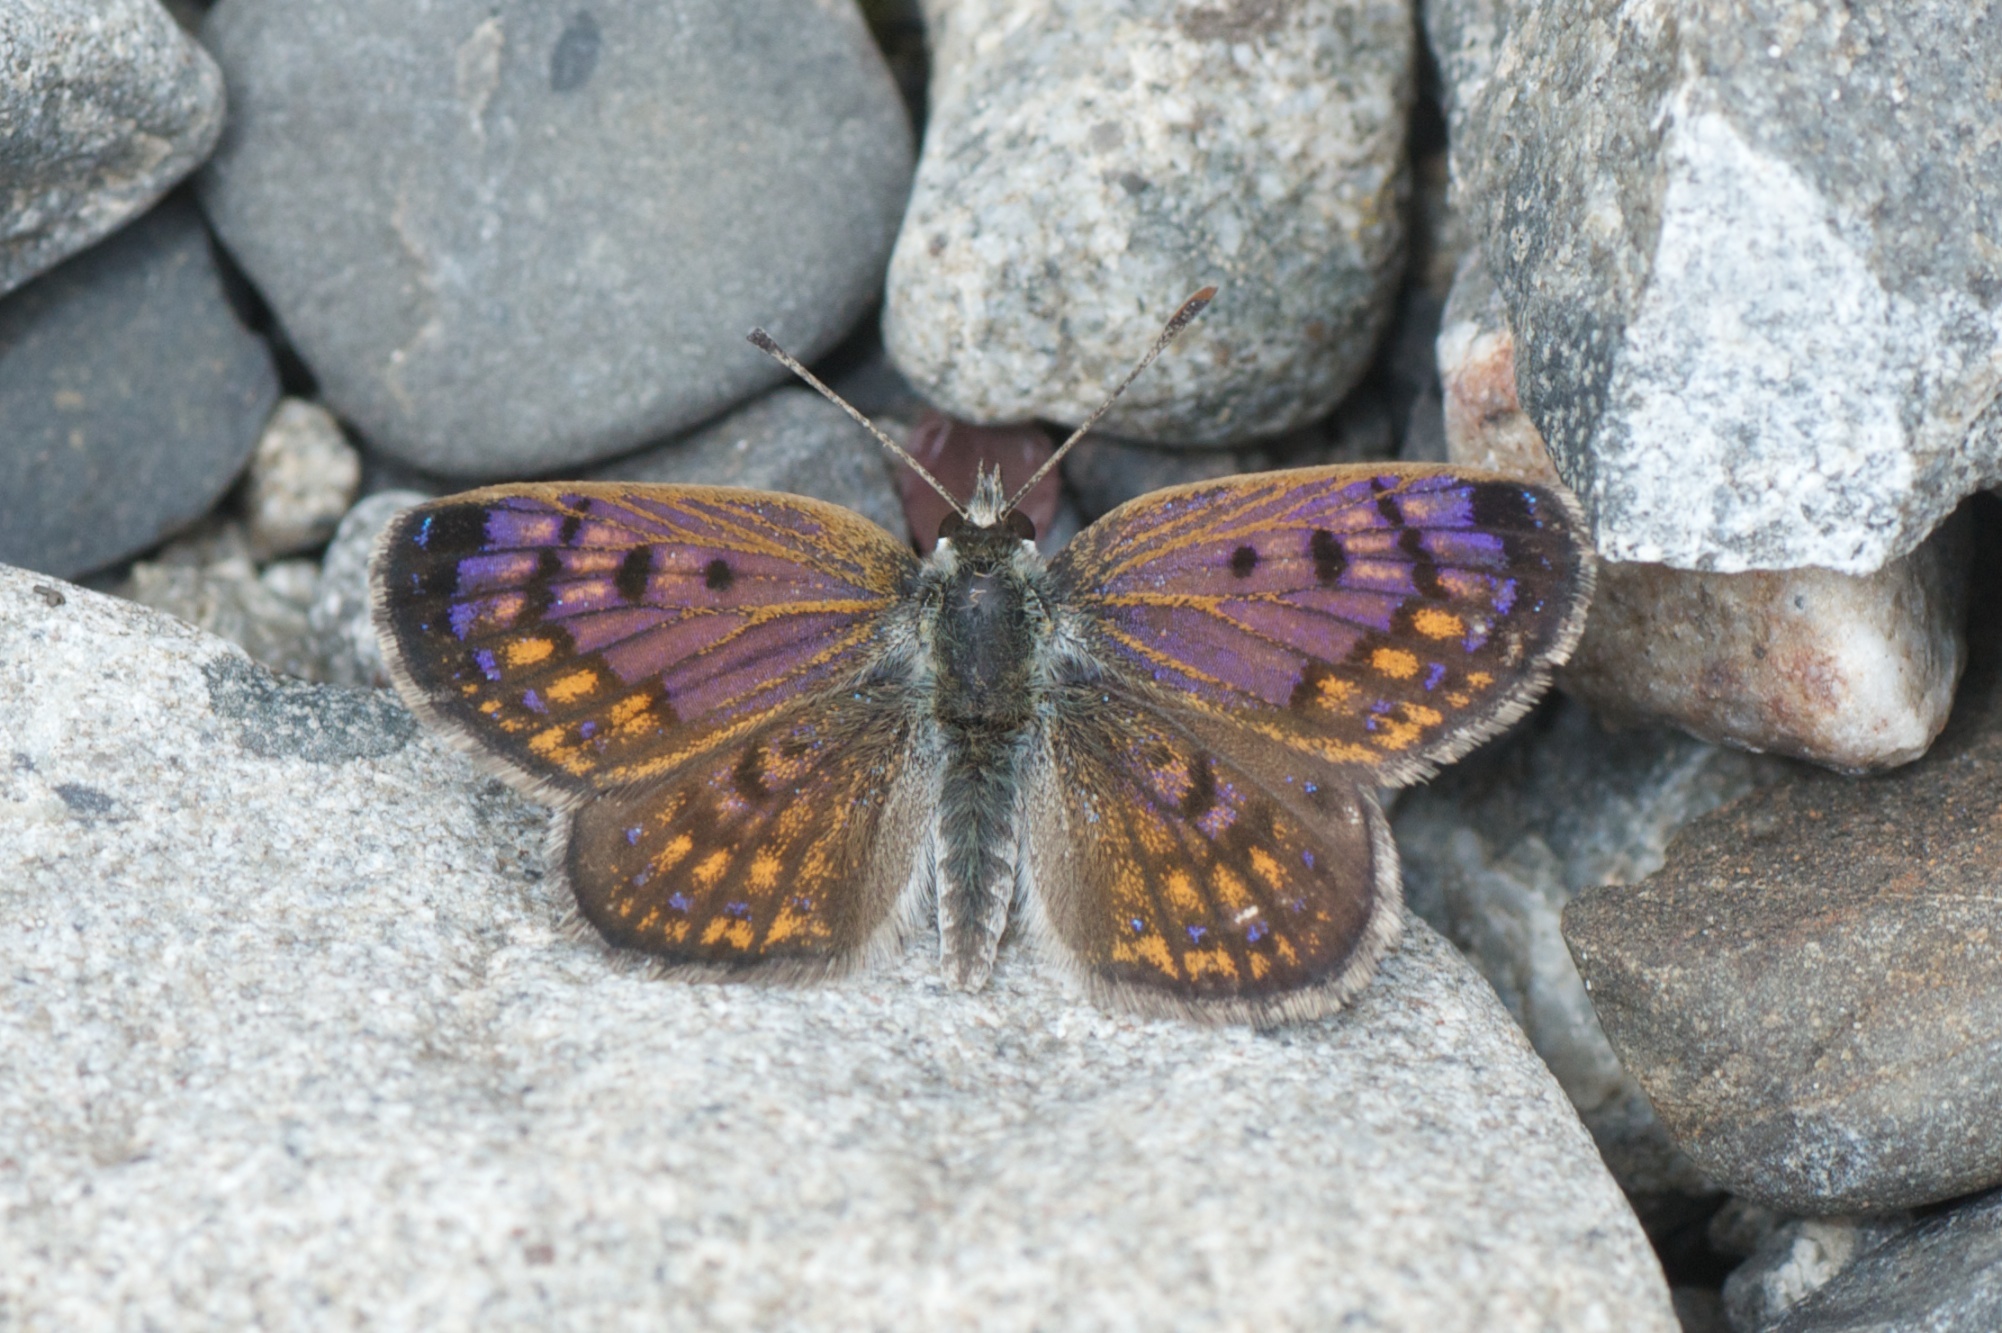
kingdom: Animalia
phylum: Arthropoda
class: Insecta
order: Lepidoptera
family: Lycaenidae
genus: Lycaena
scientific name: Lycaena boldenarum
